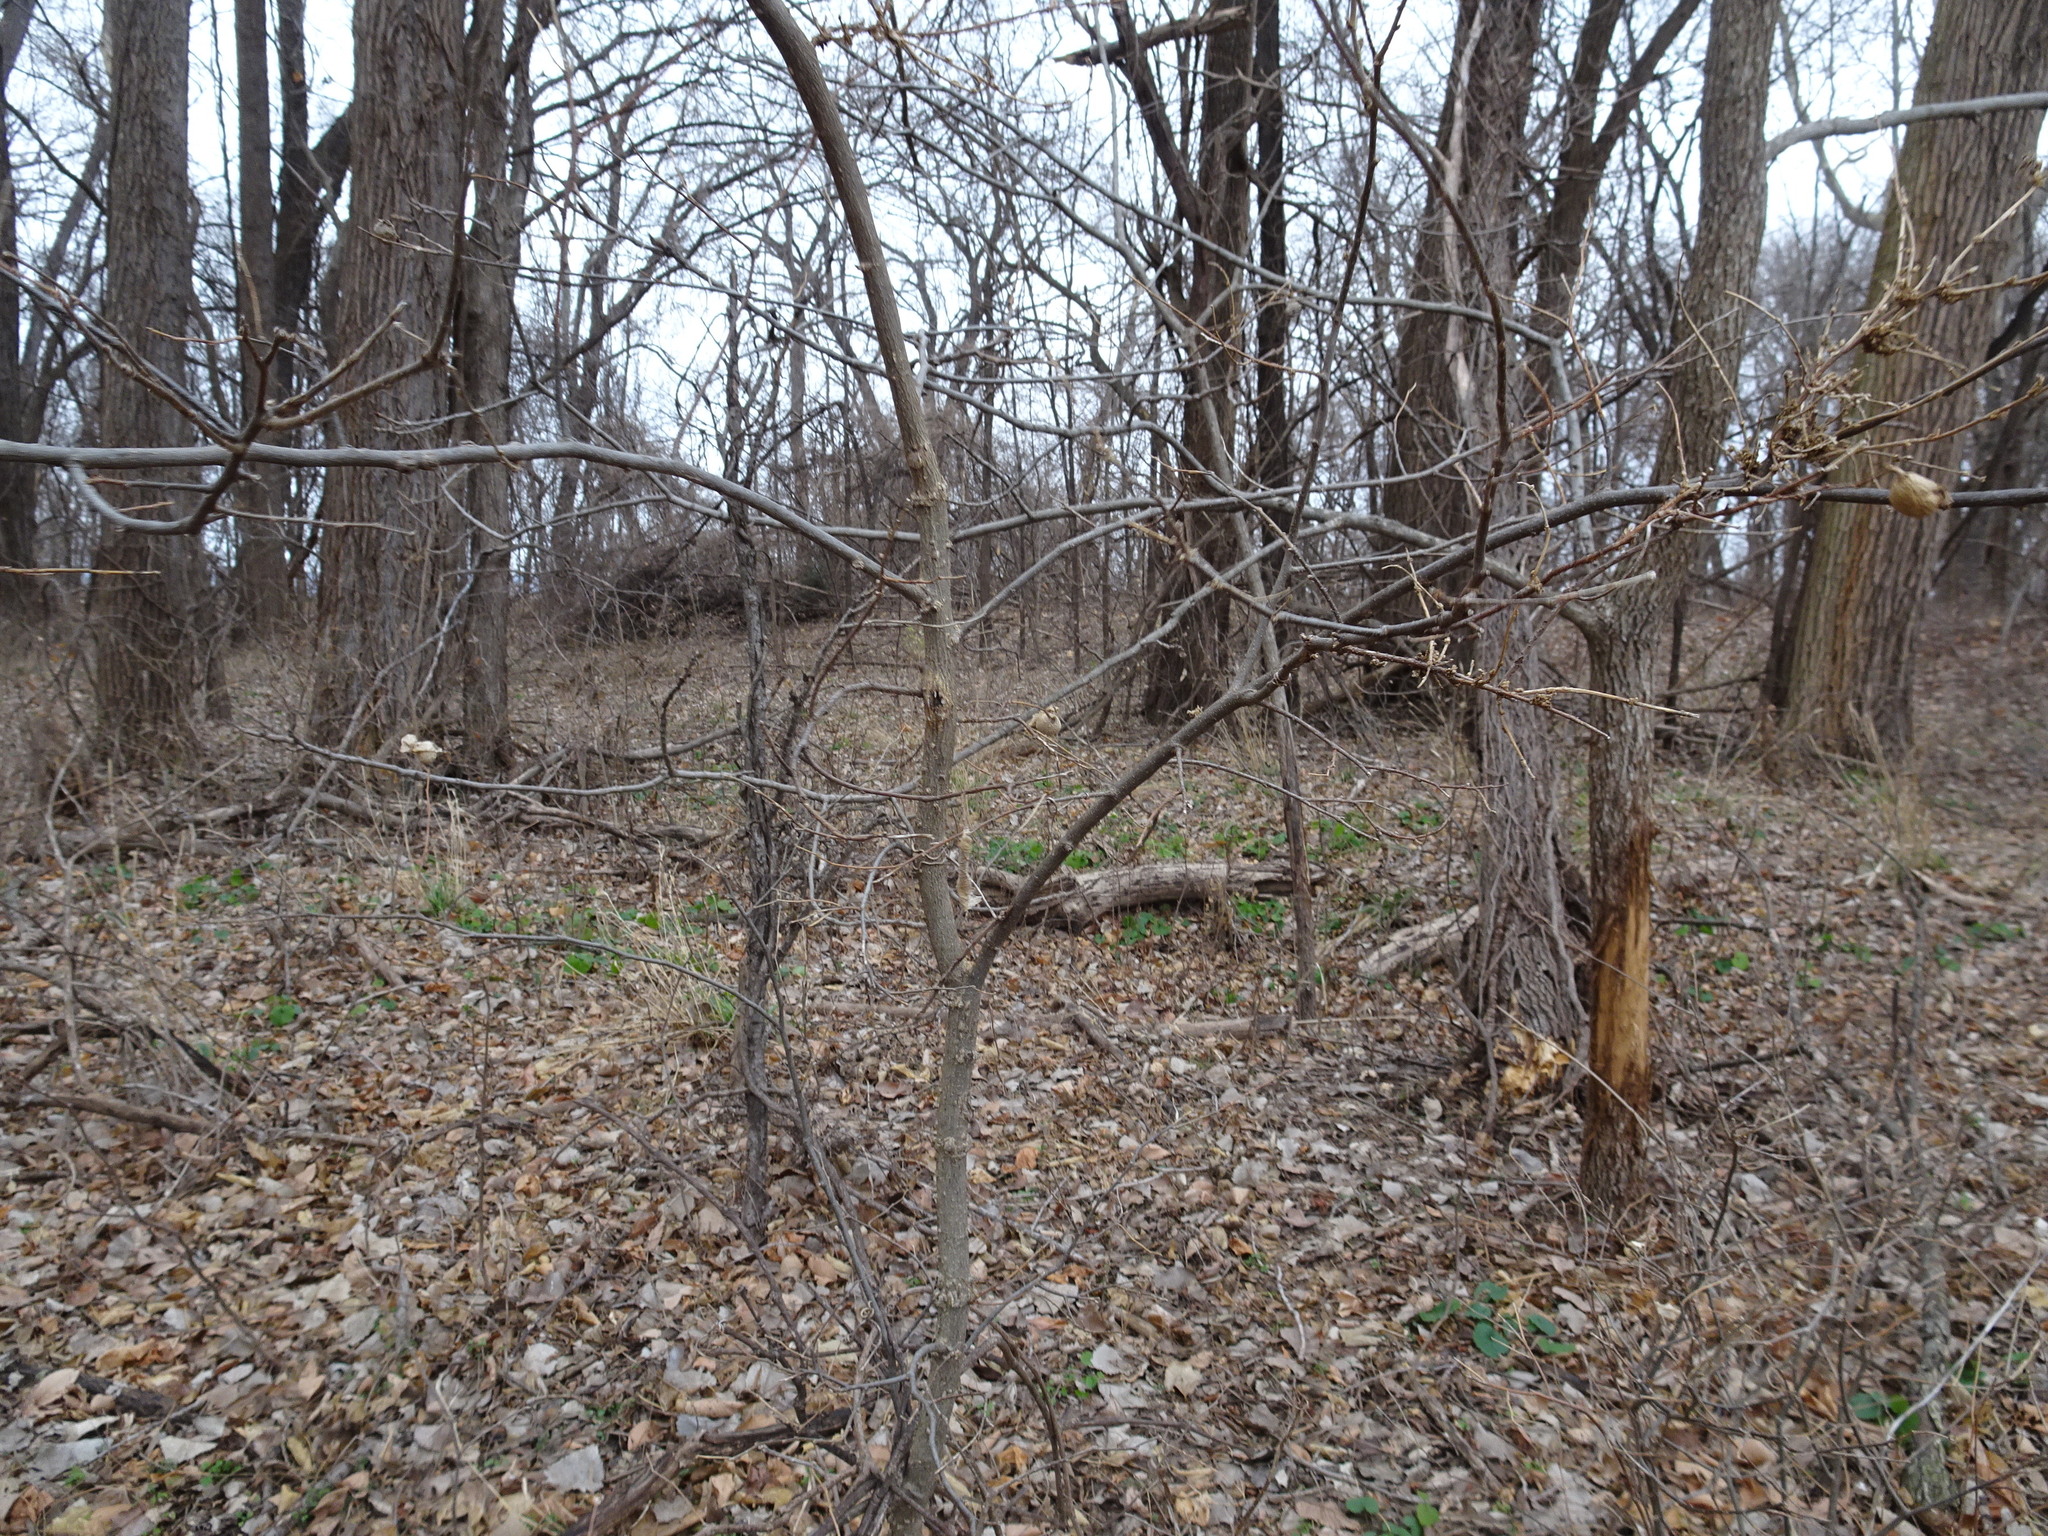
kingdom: Animalia
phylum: Arthropoda
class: Insecta
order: Hemiptera
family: Aphalaridae
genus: Pachypsylla
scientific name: Pachypsylla venusta
